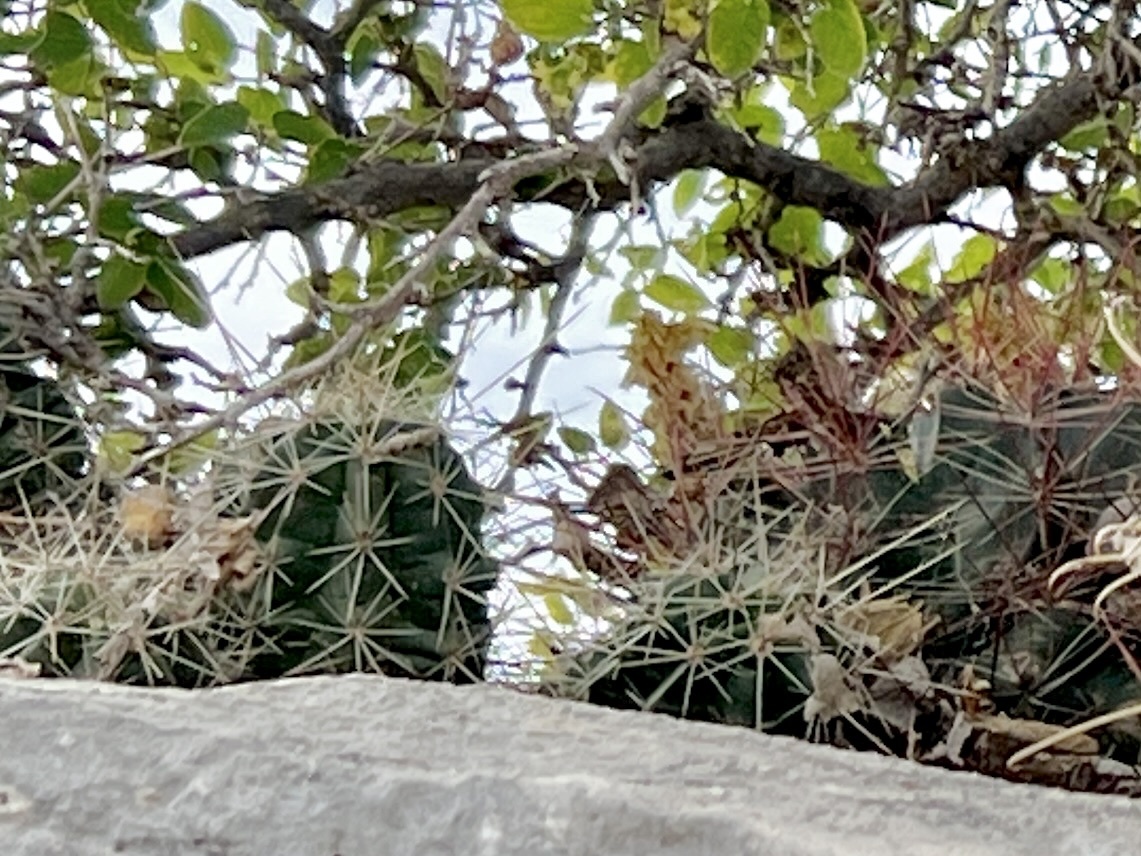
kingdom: Plantae
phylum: Tracheophyta
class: Magnoliopsida
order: Caryophyllales
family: Cactaceae
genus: Echinocereus
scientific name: Echinocereus enneacanthus
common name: Pitaya
